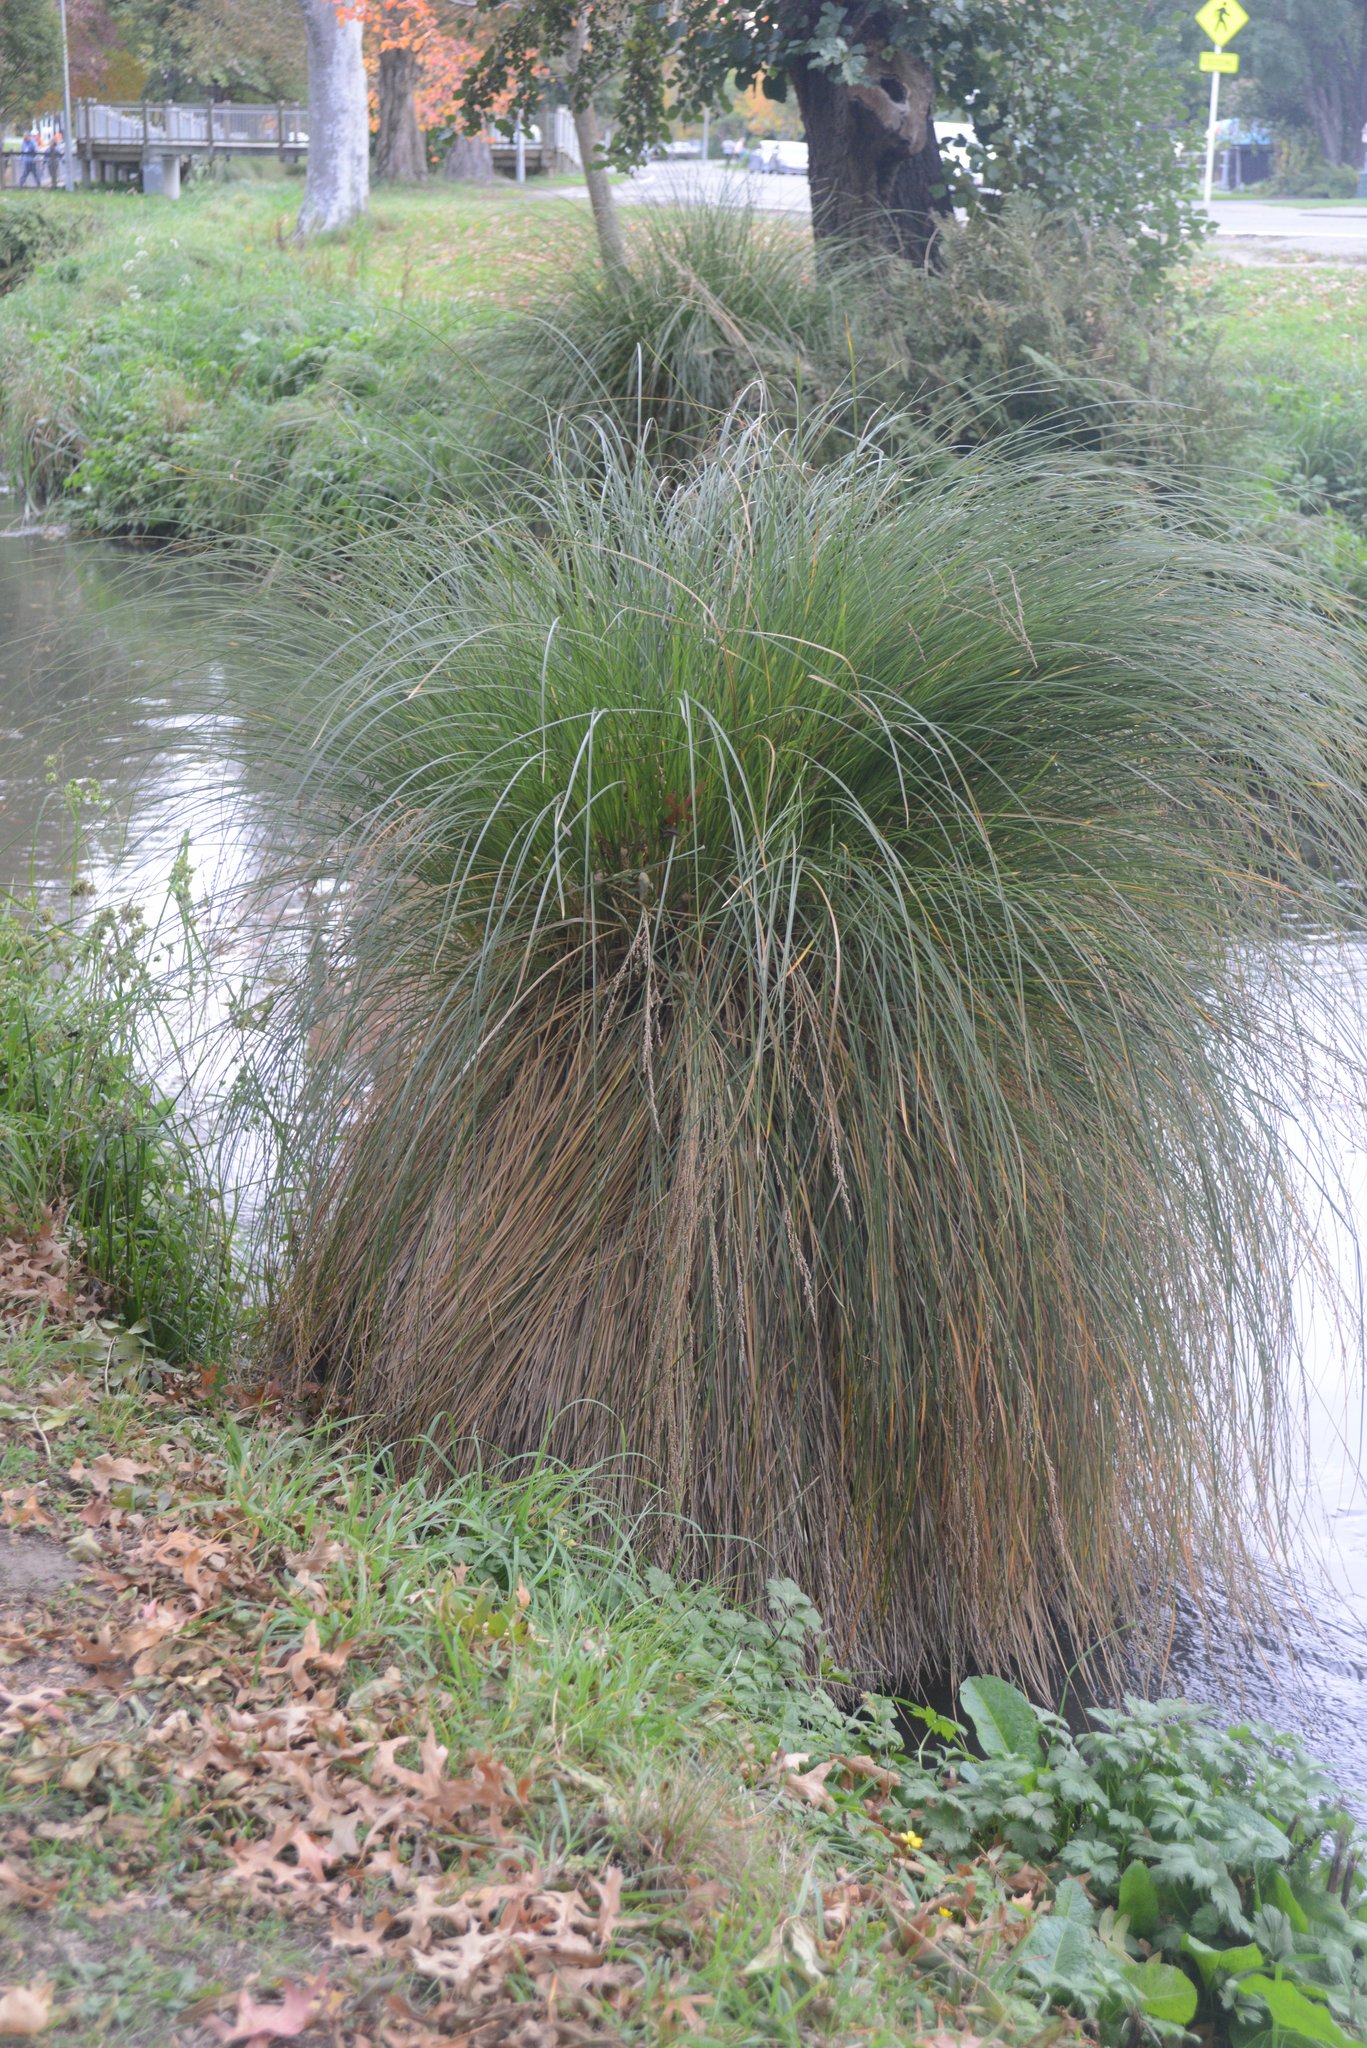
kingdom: Plantae
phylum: Tracheophyta
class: Liliopsida
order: Poales
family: Cyperaceae
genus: Carex
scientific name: Carex secta
